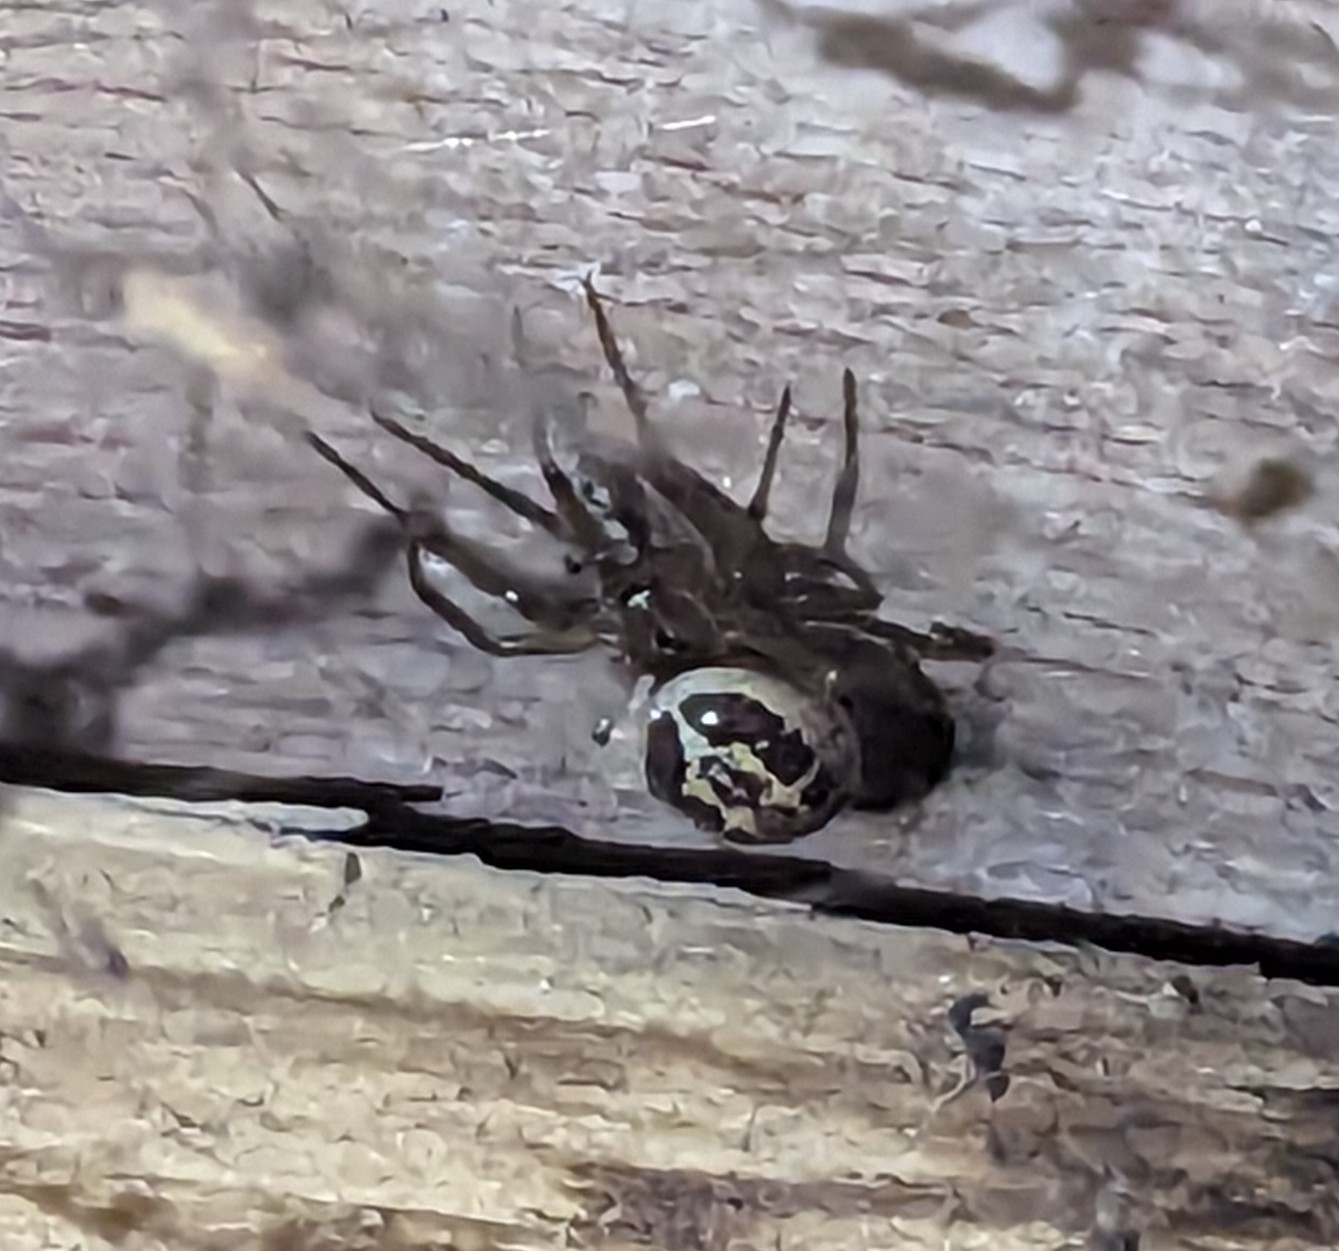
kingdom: Animalia
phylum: Arthropoda
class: Arachnida
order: Araneae
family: Theridiidae
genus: Steatoda
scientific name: Steatoda nobilis
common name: Cobweb weaver
